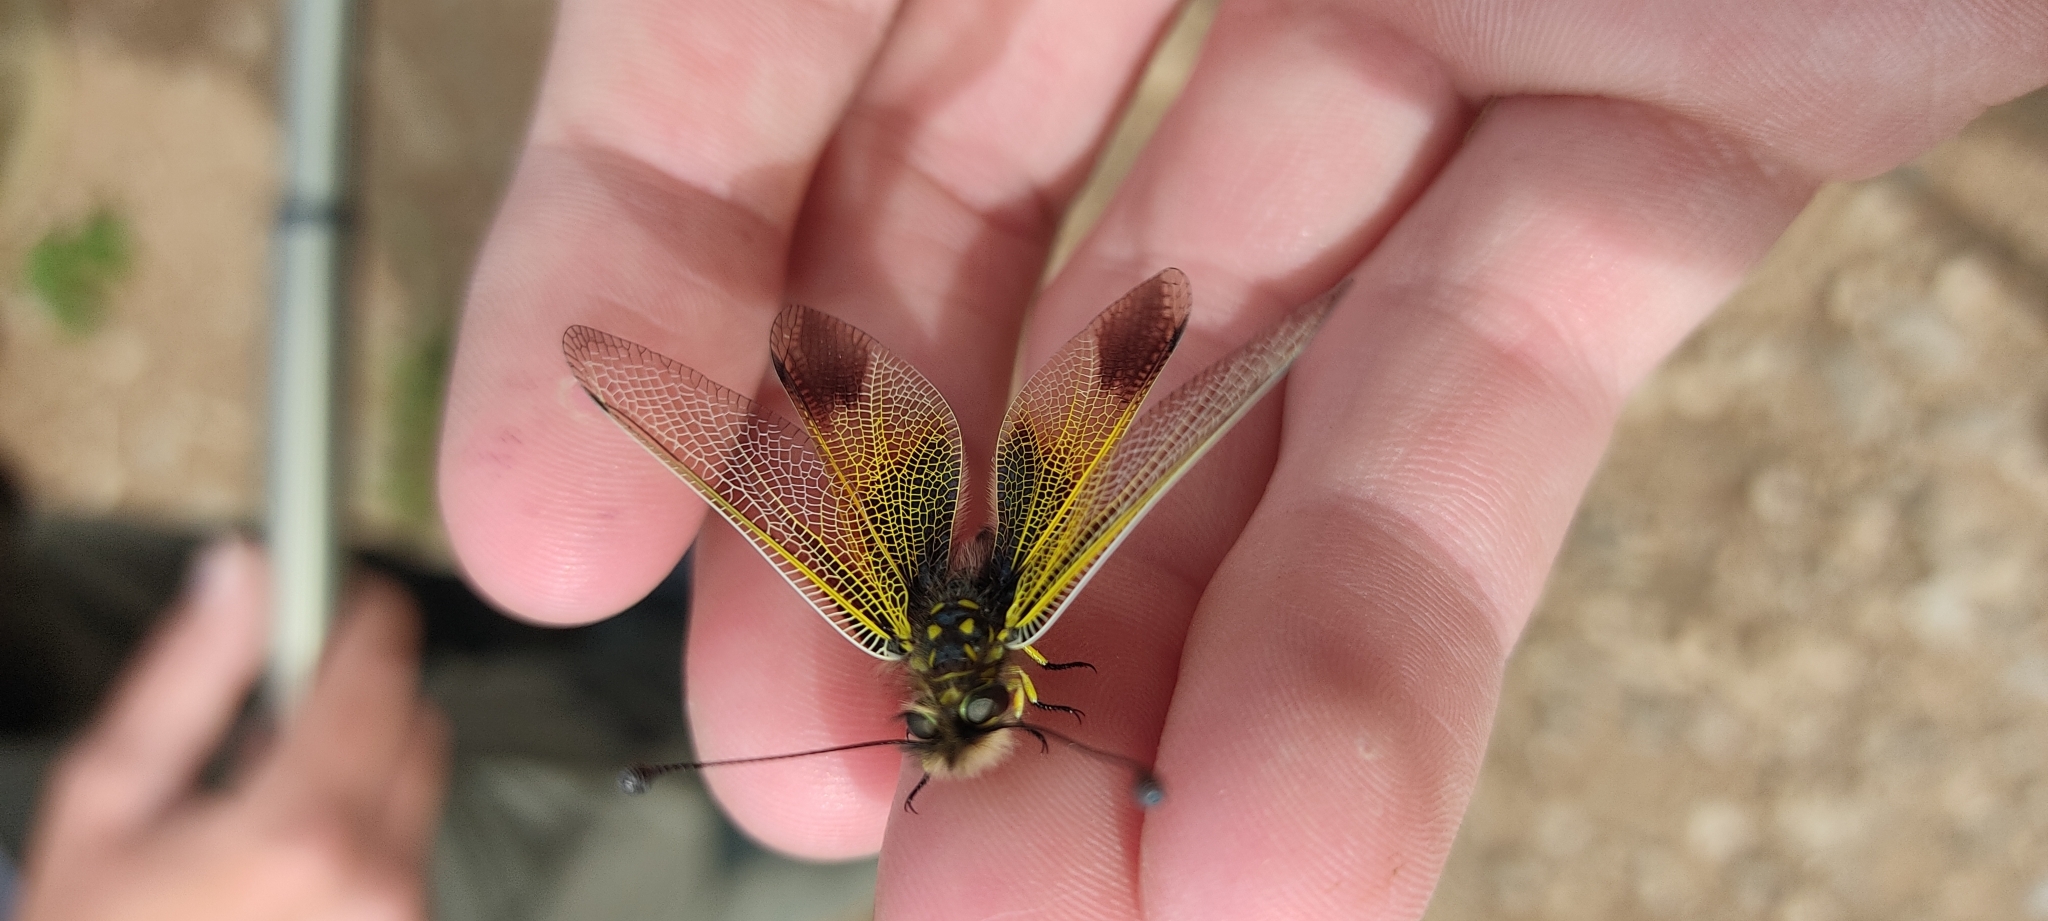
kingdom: Animalia
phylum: Arthropoda
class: Insecta
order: Neuroptera
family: Ascalaphidae
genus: Libelloides
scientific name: Libelloides ictericus
